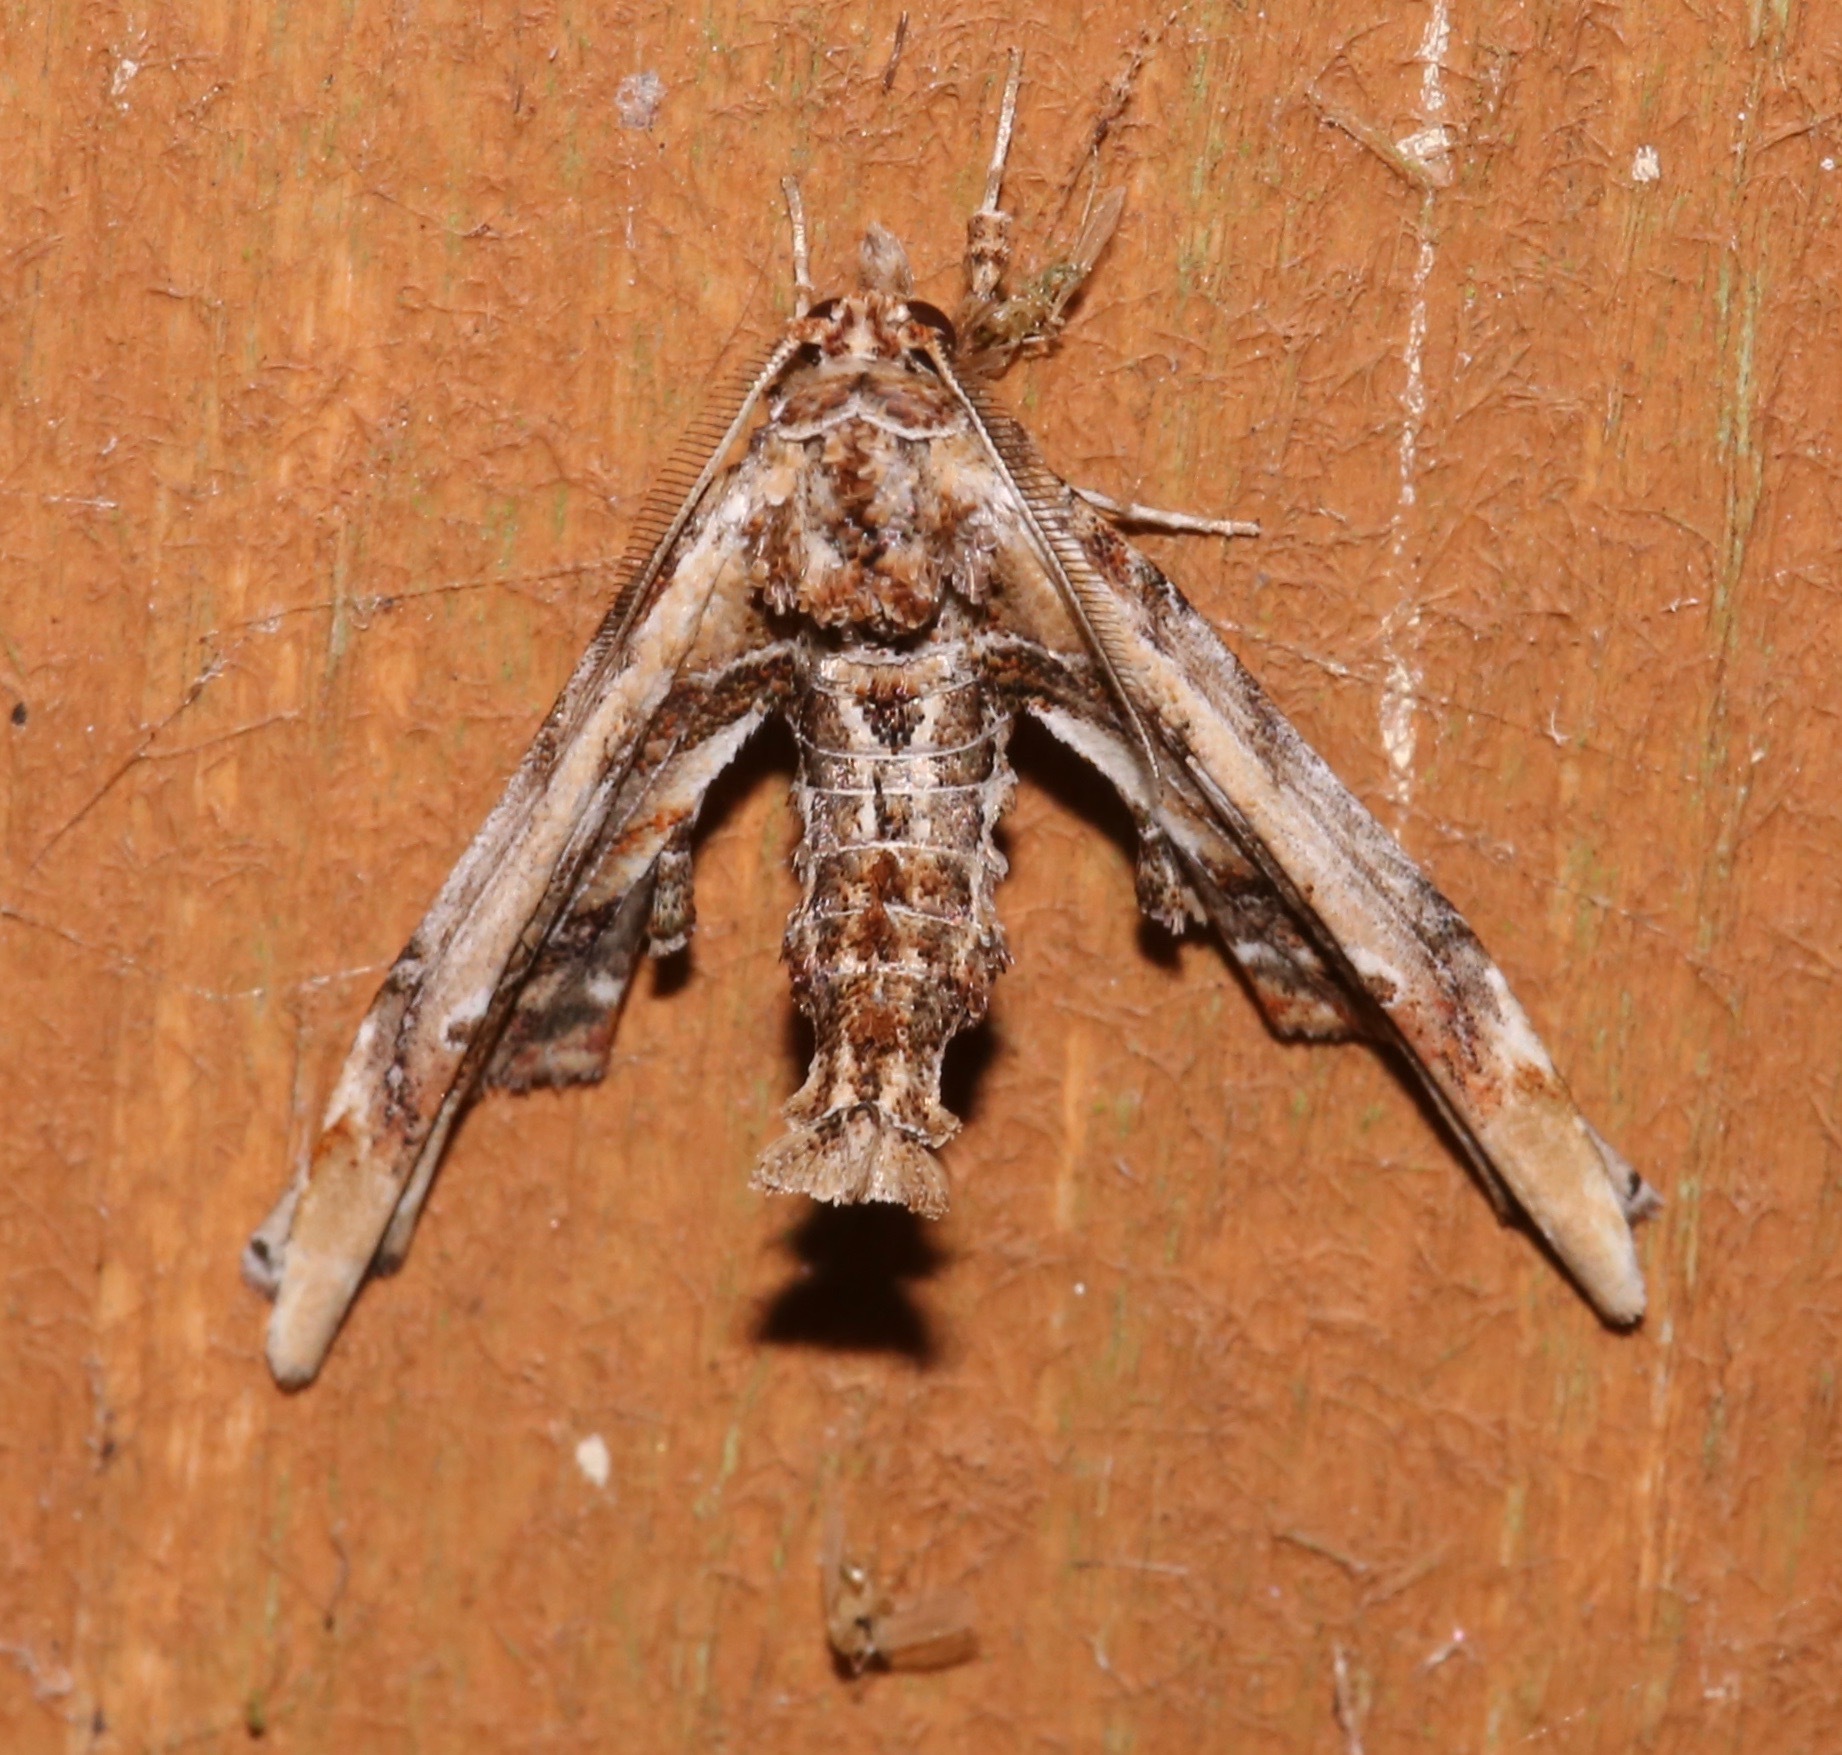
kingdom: Animalia
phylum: Arthropoda
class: Insecta
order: Lepidoptera
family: Euteliidae
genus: Marathyssa
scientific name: Marathyssa basalis
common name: Light marathyssa moth
